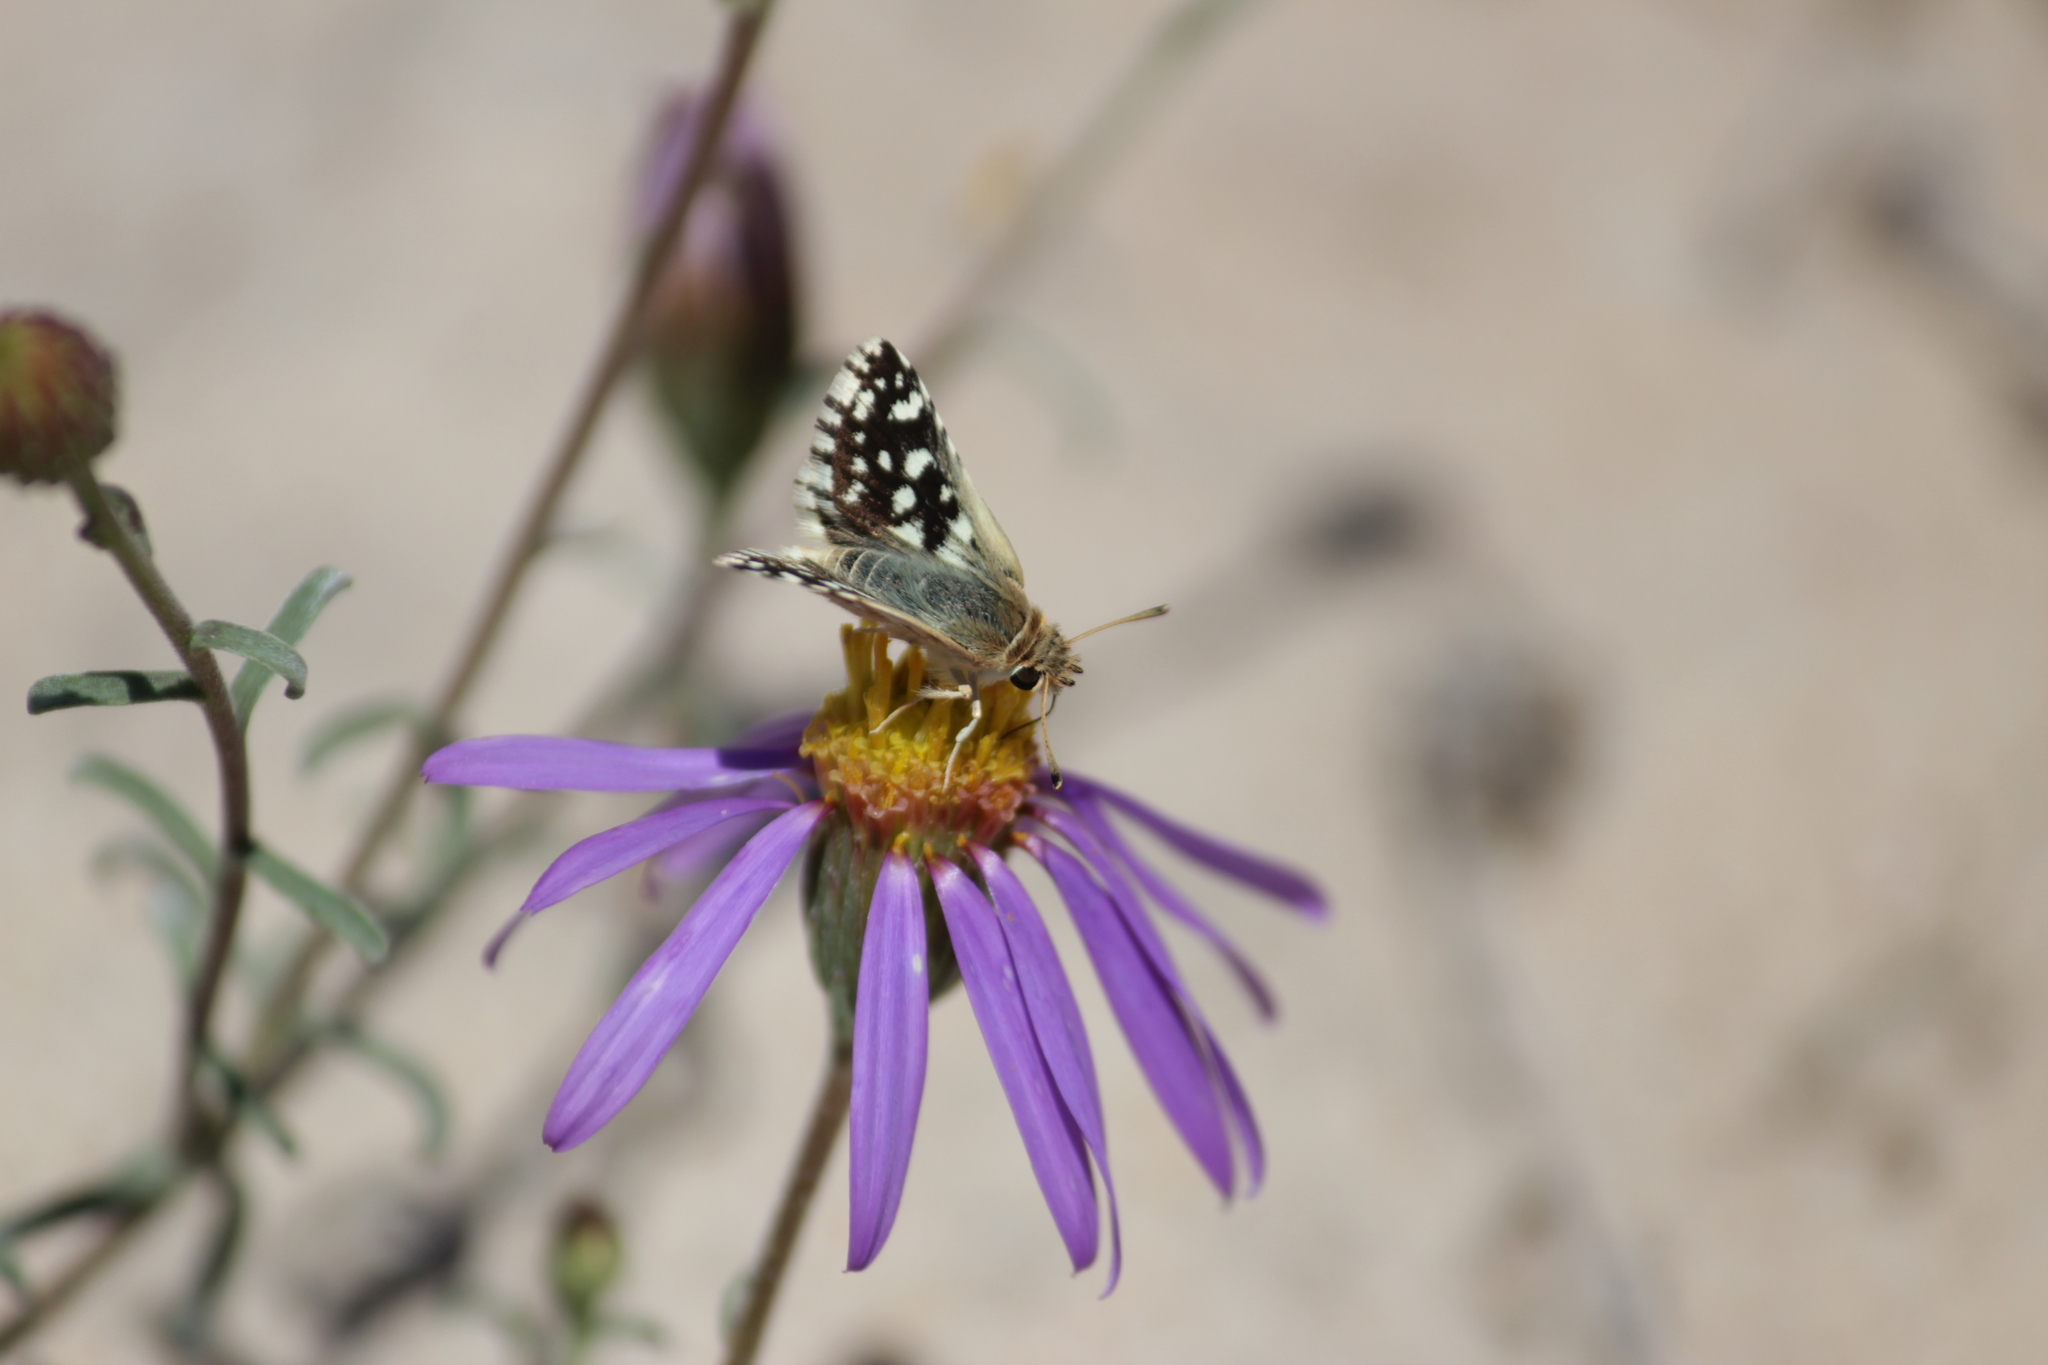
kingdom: Animalia
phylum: Arthropoda
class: Insecta
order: Lepidoptera
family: Hesperiidae
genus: Spialia
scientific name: Spialia mafa
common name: Mafa sandman
